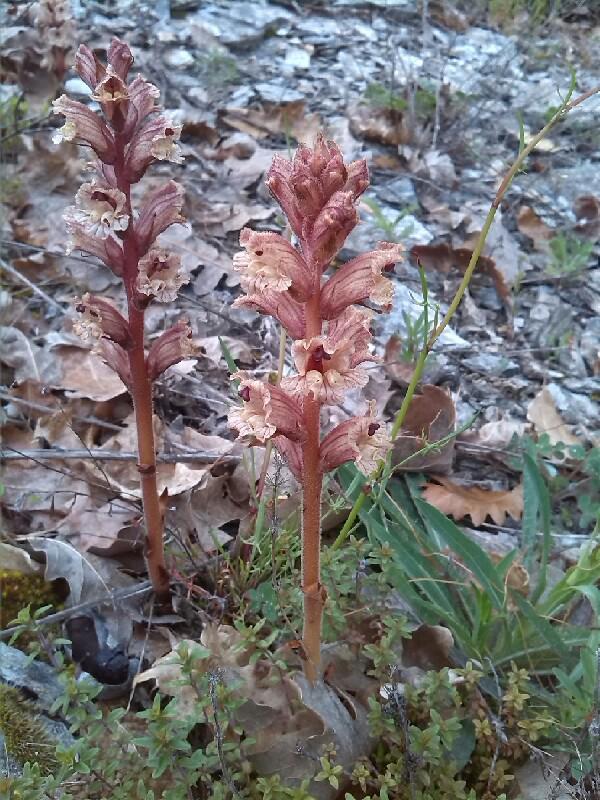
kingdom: Plantae
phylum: Tracheophyta
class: Magnoliopsida
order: Lamiales
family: Orobanchaceae
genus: Orobanche
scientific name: Orobanche alba
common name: Thyme broomrape
